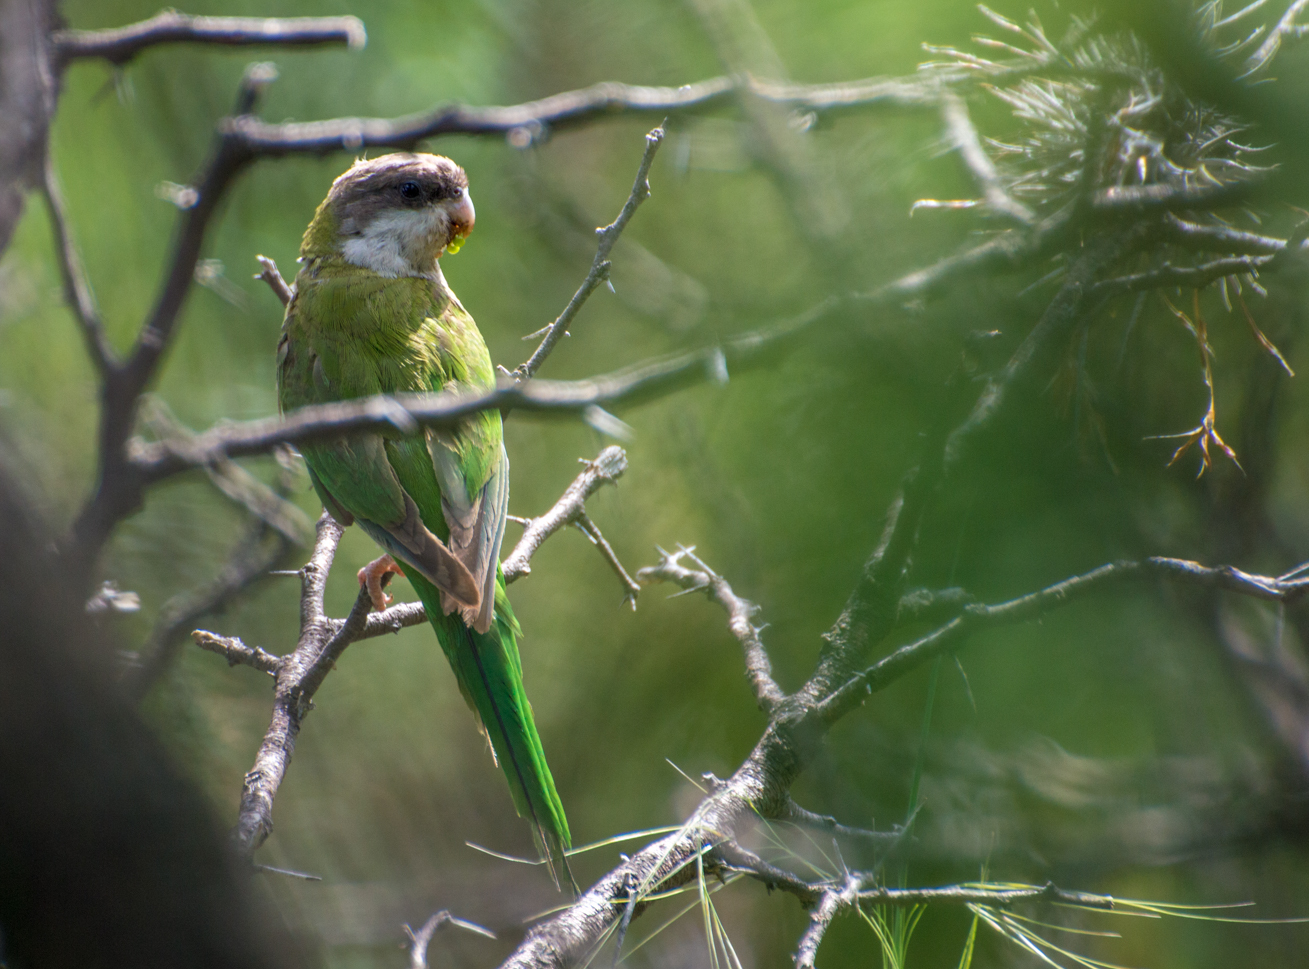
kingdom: Animalia
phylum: Chordata
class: Aves
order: Psittaciformes
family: Psittacidae
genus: Psilopsiagon
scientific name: Psilopsiagon aymara
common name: Grey-hooded parakeet
